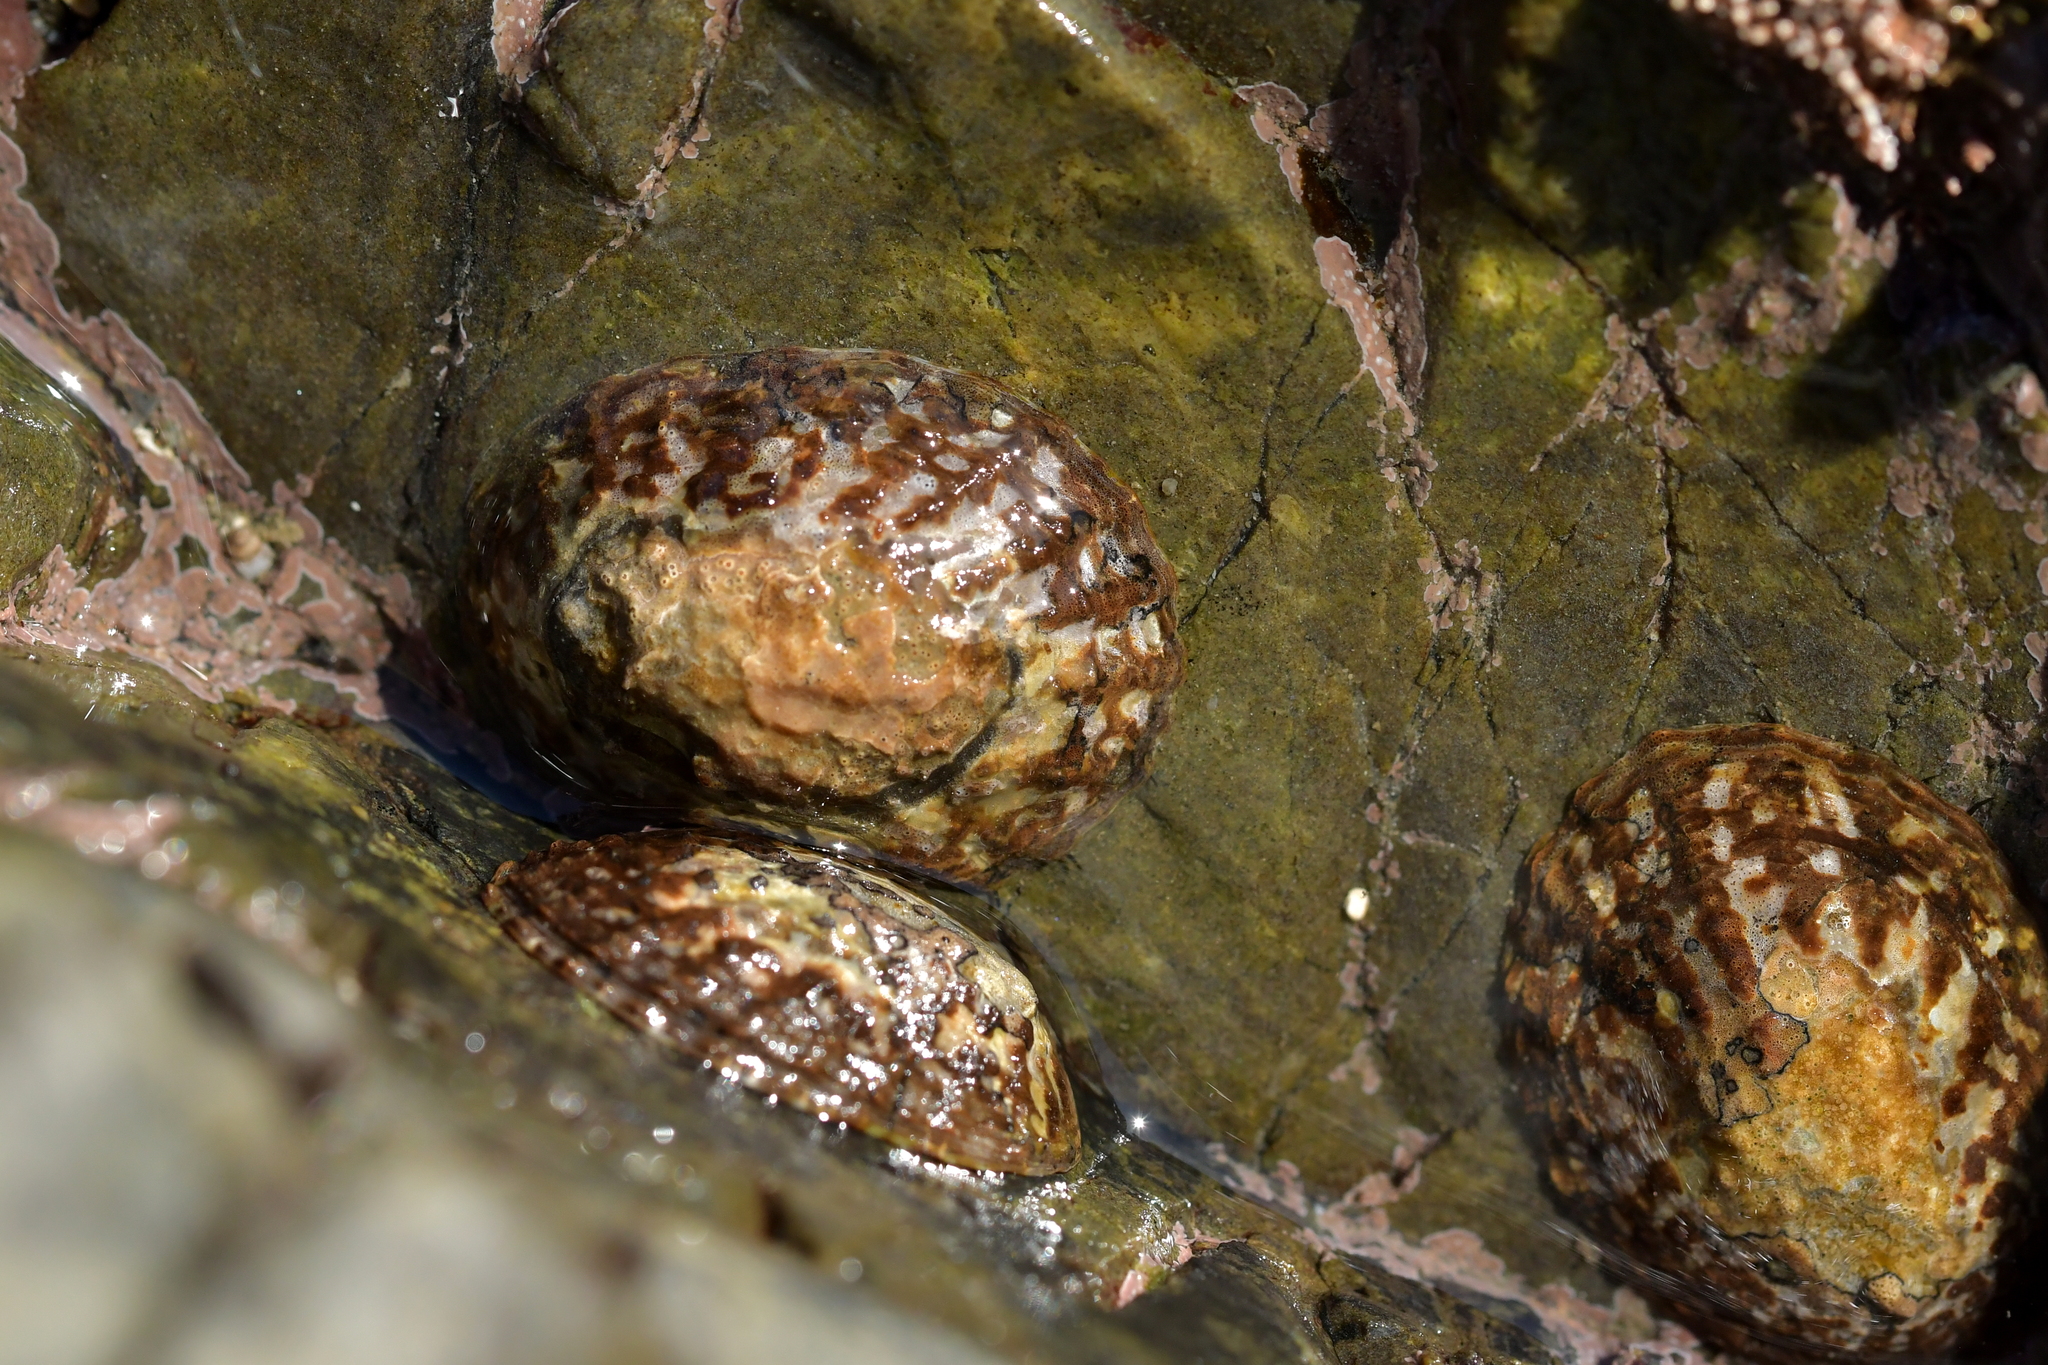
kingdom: Animalia
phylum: Mollusca
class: Gastropoda
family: Nacellidae
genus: Cellana
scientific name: Cellana denticulata
